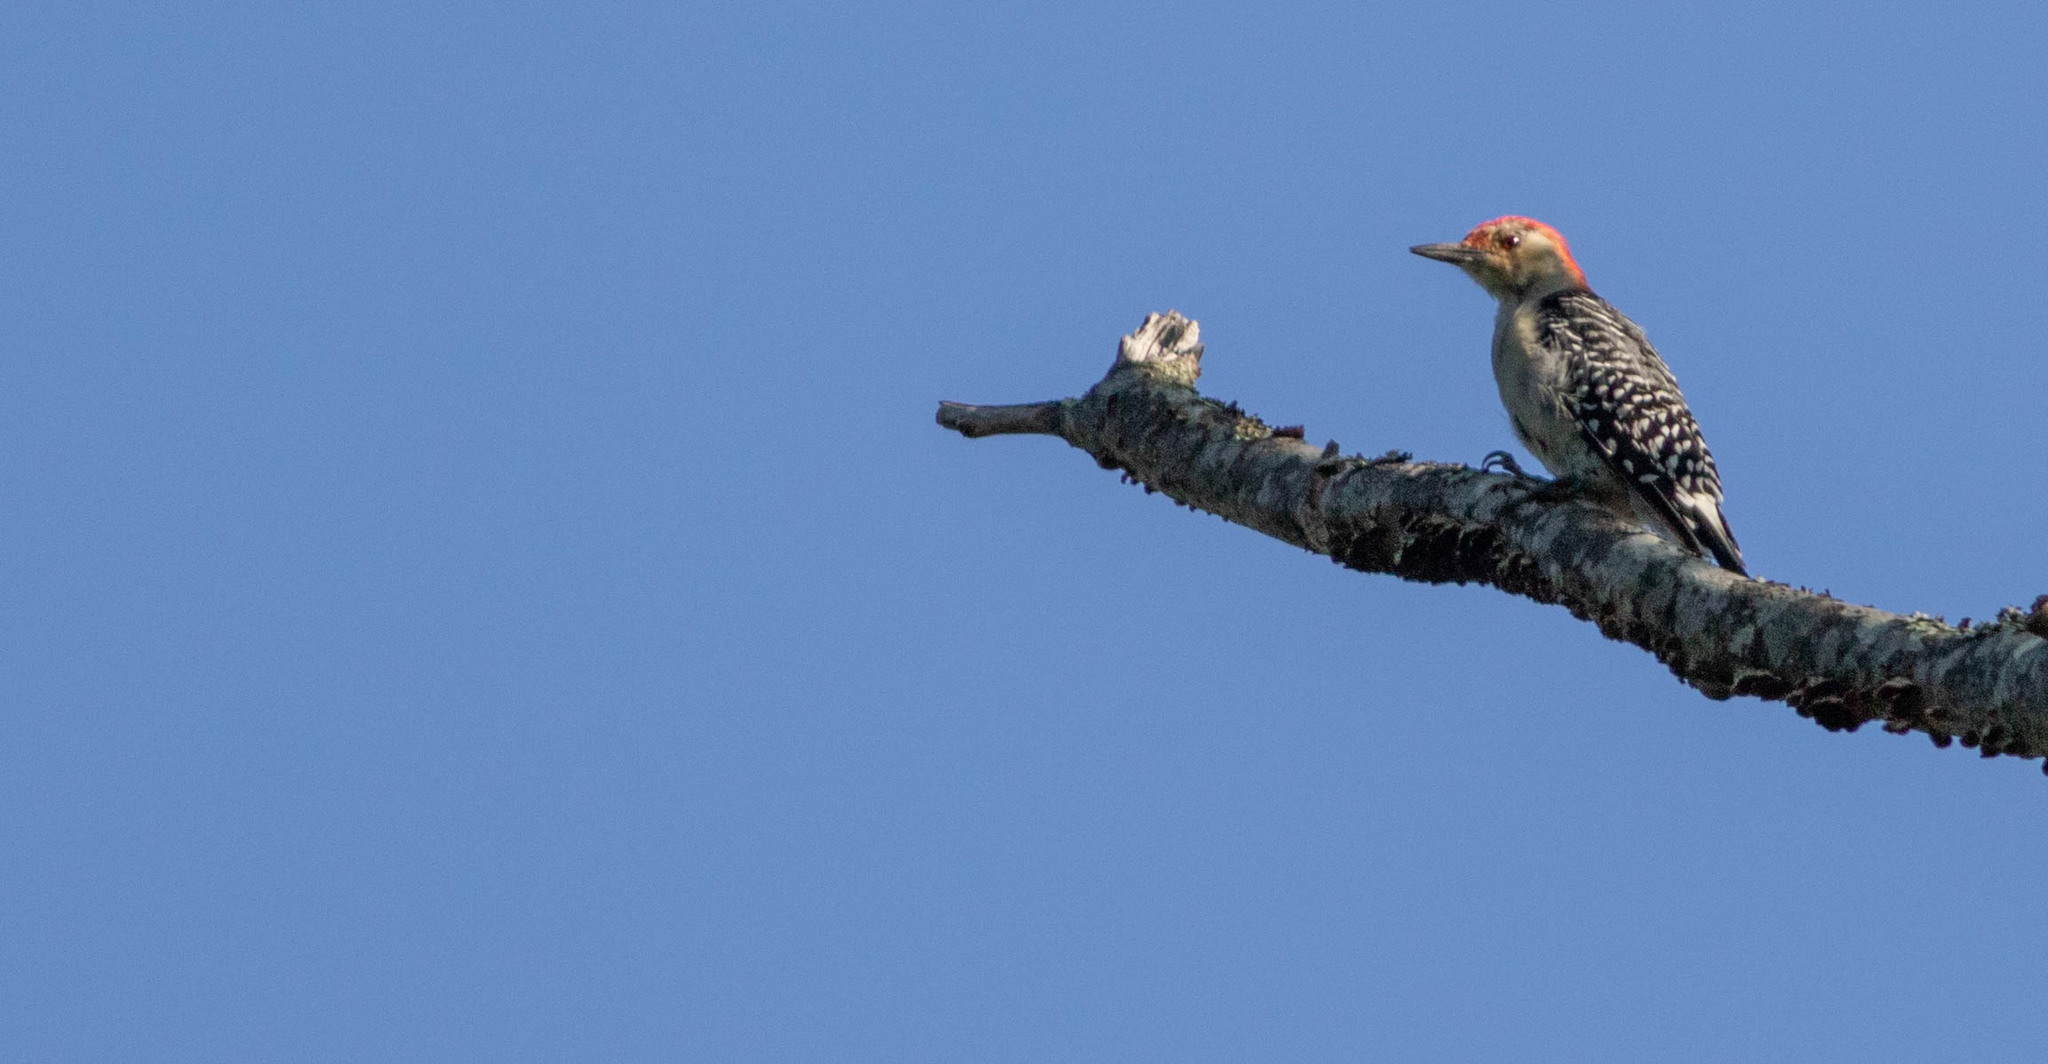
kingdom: Animalia
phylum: Chordata
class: Aves
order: Piciformes
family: Picidae
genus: Melanerpes
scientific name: Melanerpes carolinus
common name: Red-bellied woodpecker
